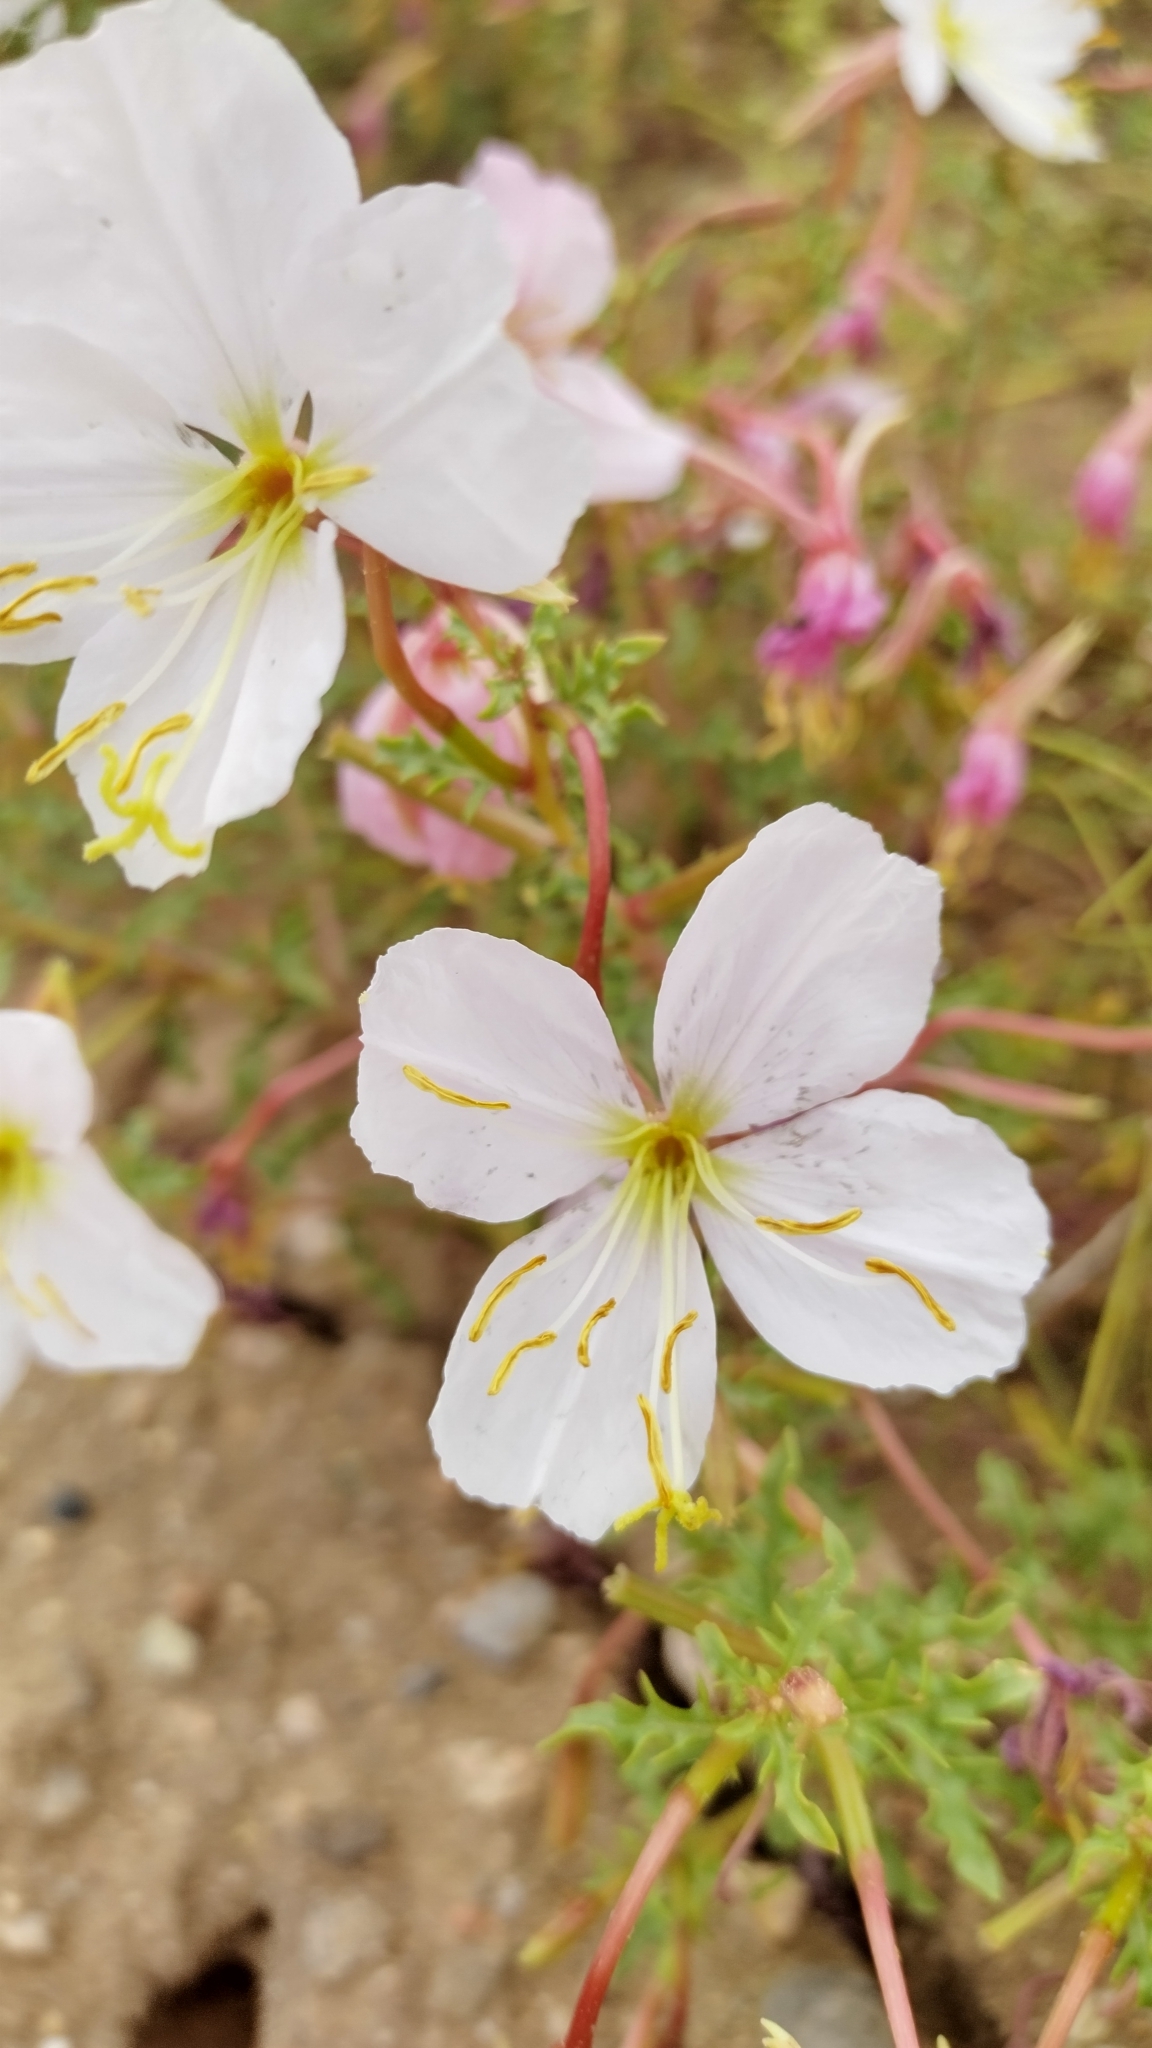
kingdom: Plantae
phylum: Tracheophyta
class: Magnoliopsida
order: Myrtales
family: Onagraceae
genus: Oenothera
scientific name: Oenothera pallida
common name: Pale evening-primrose
